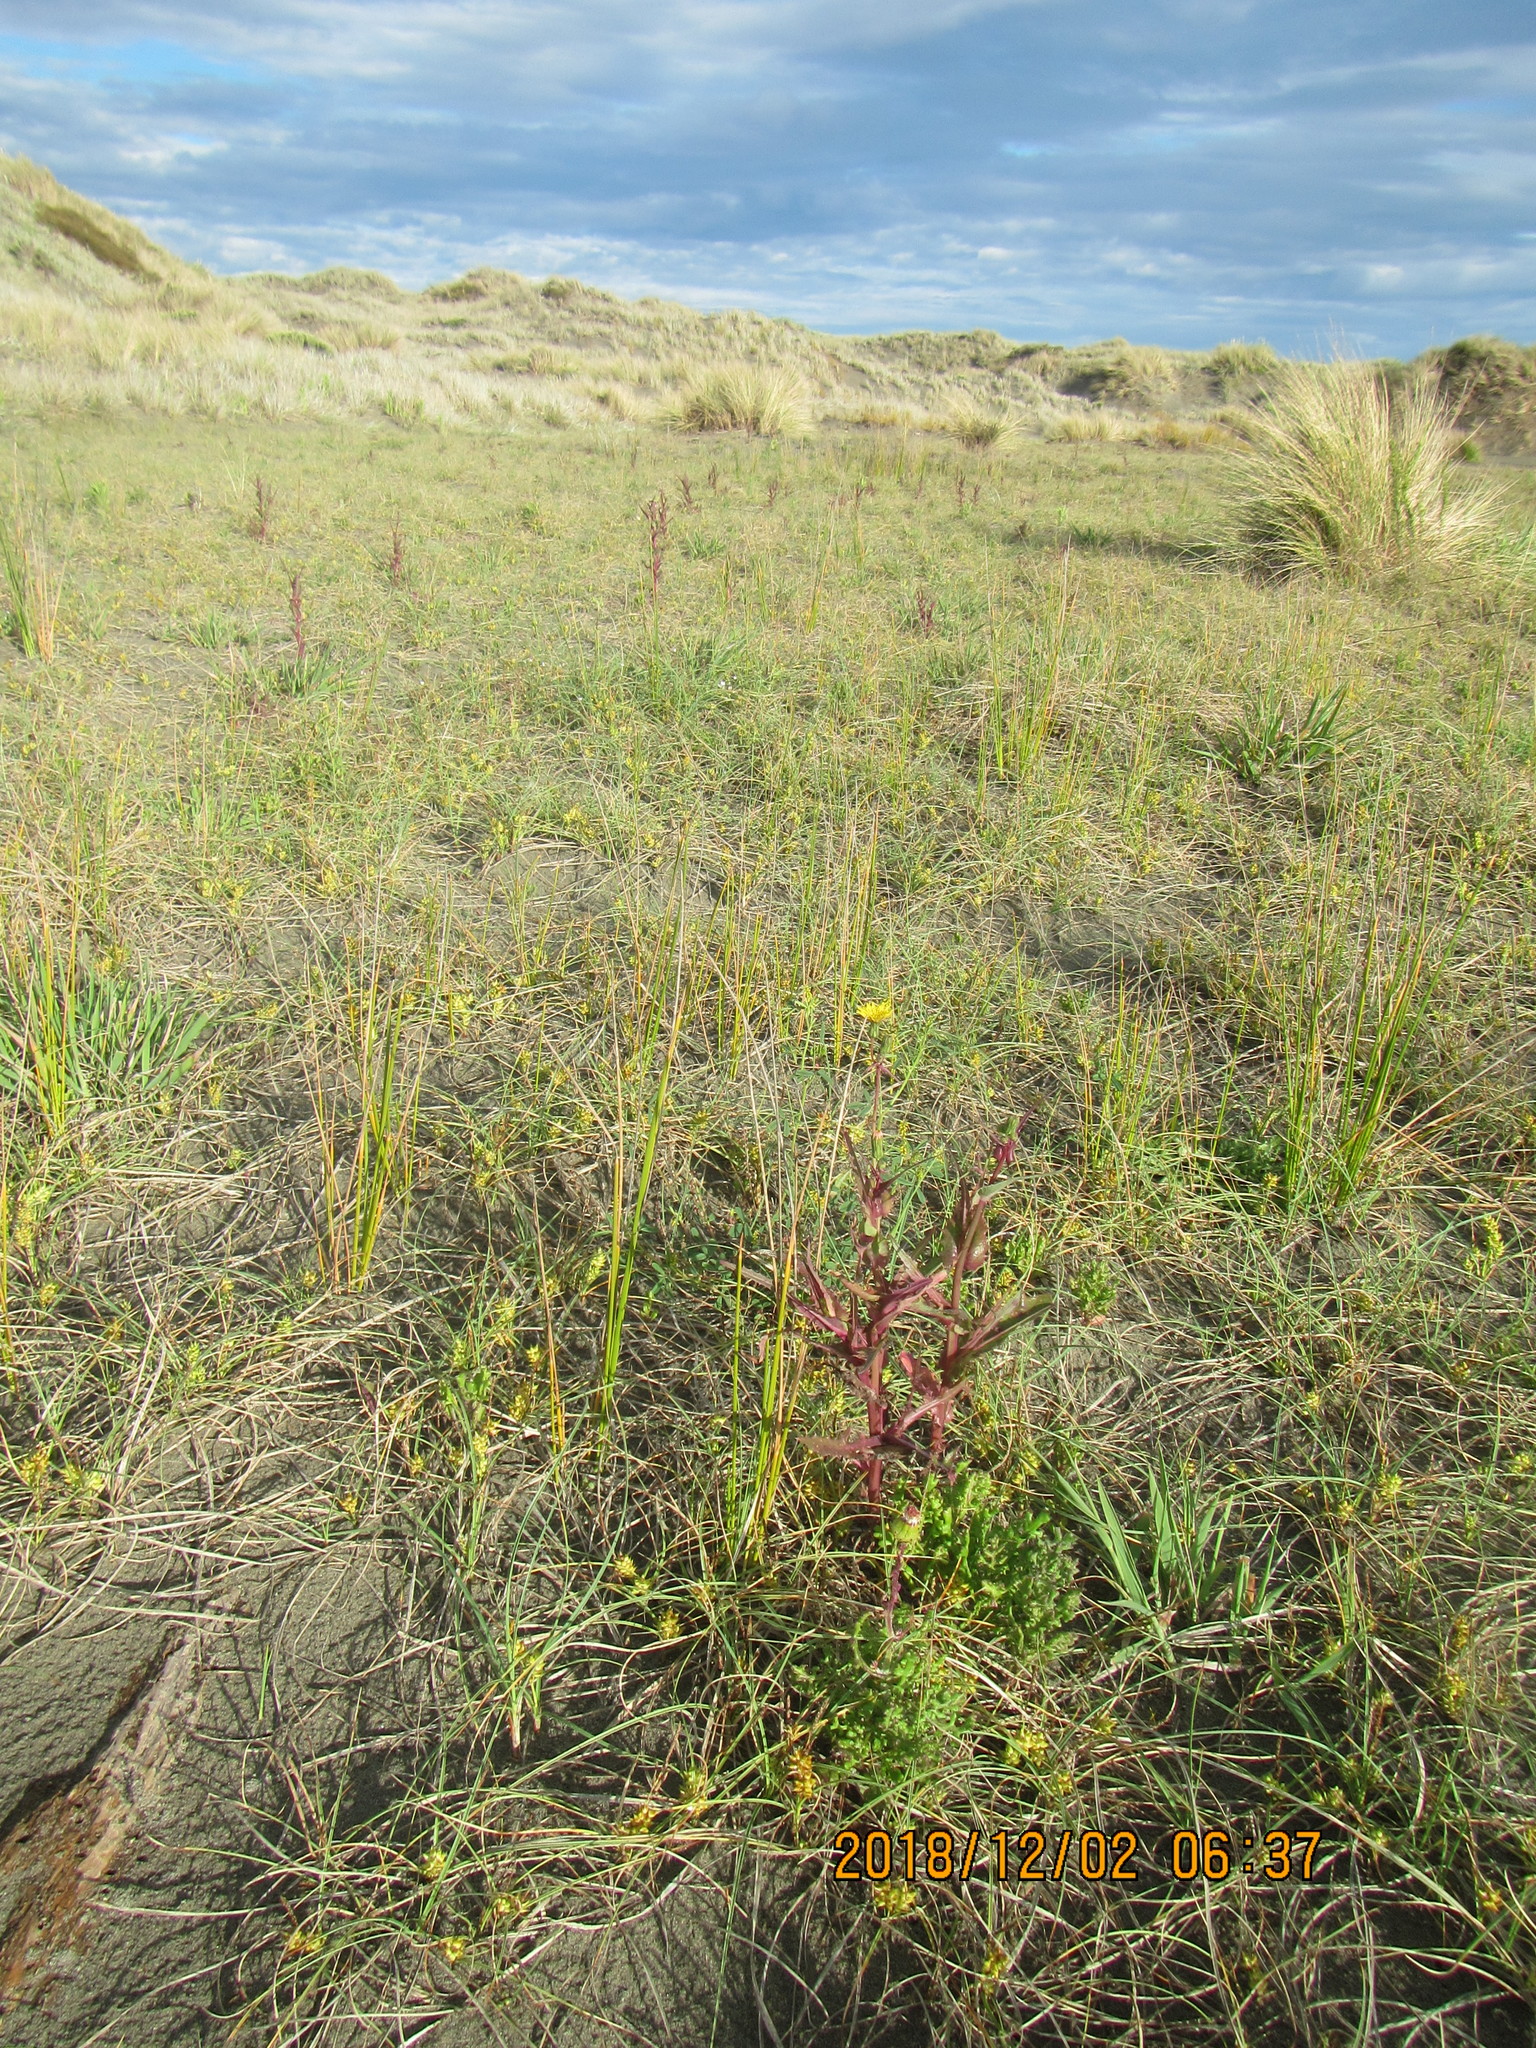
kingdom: Plantae
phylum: Tracheophyta
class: Magnoliopsida
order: Asterales
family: Asteraceae
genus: Sonchus
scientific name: Sonchus oleraceus
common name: Common sowthistle
